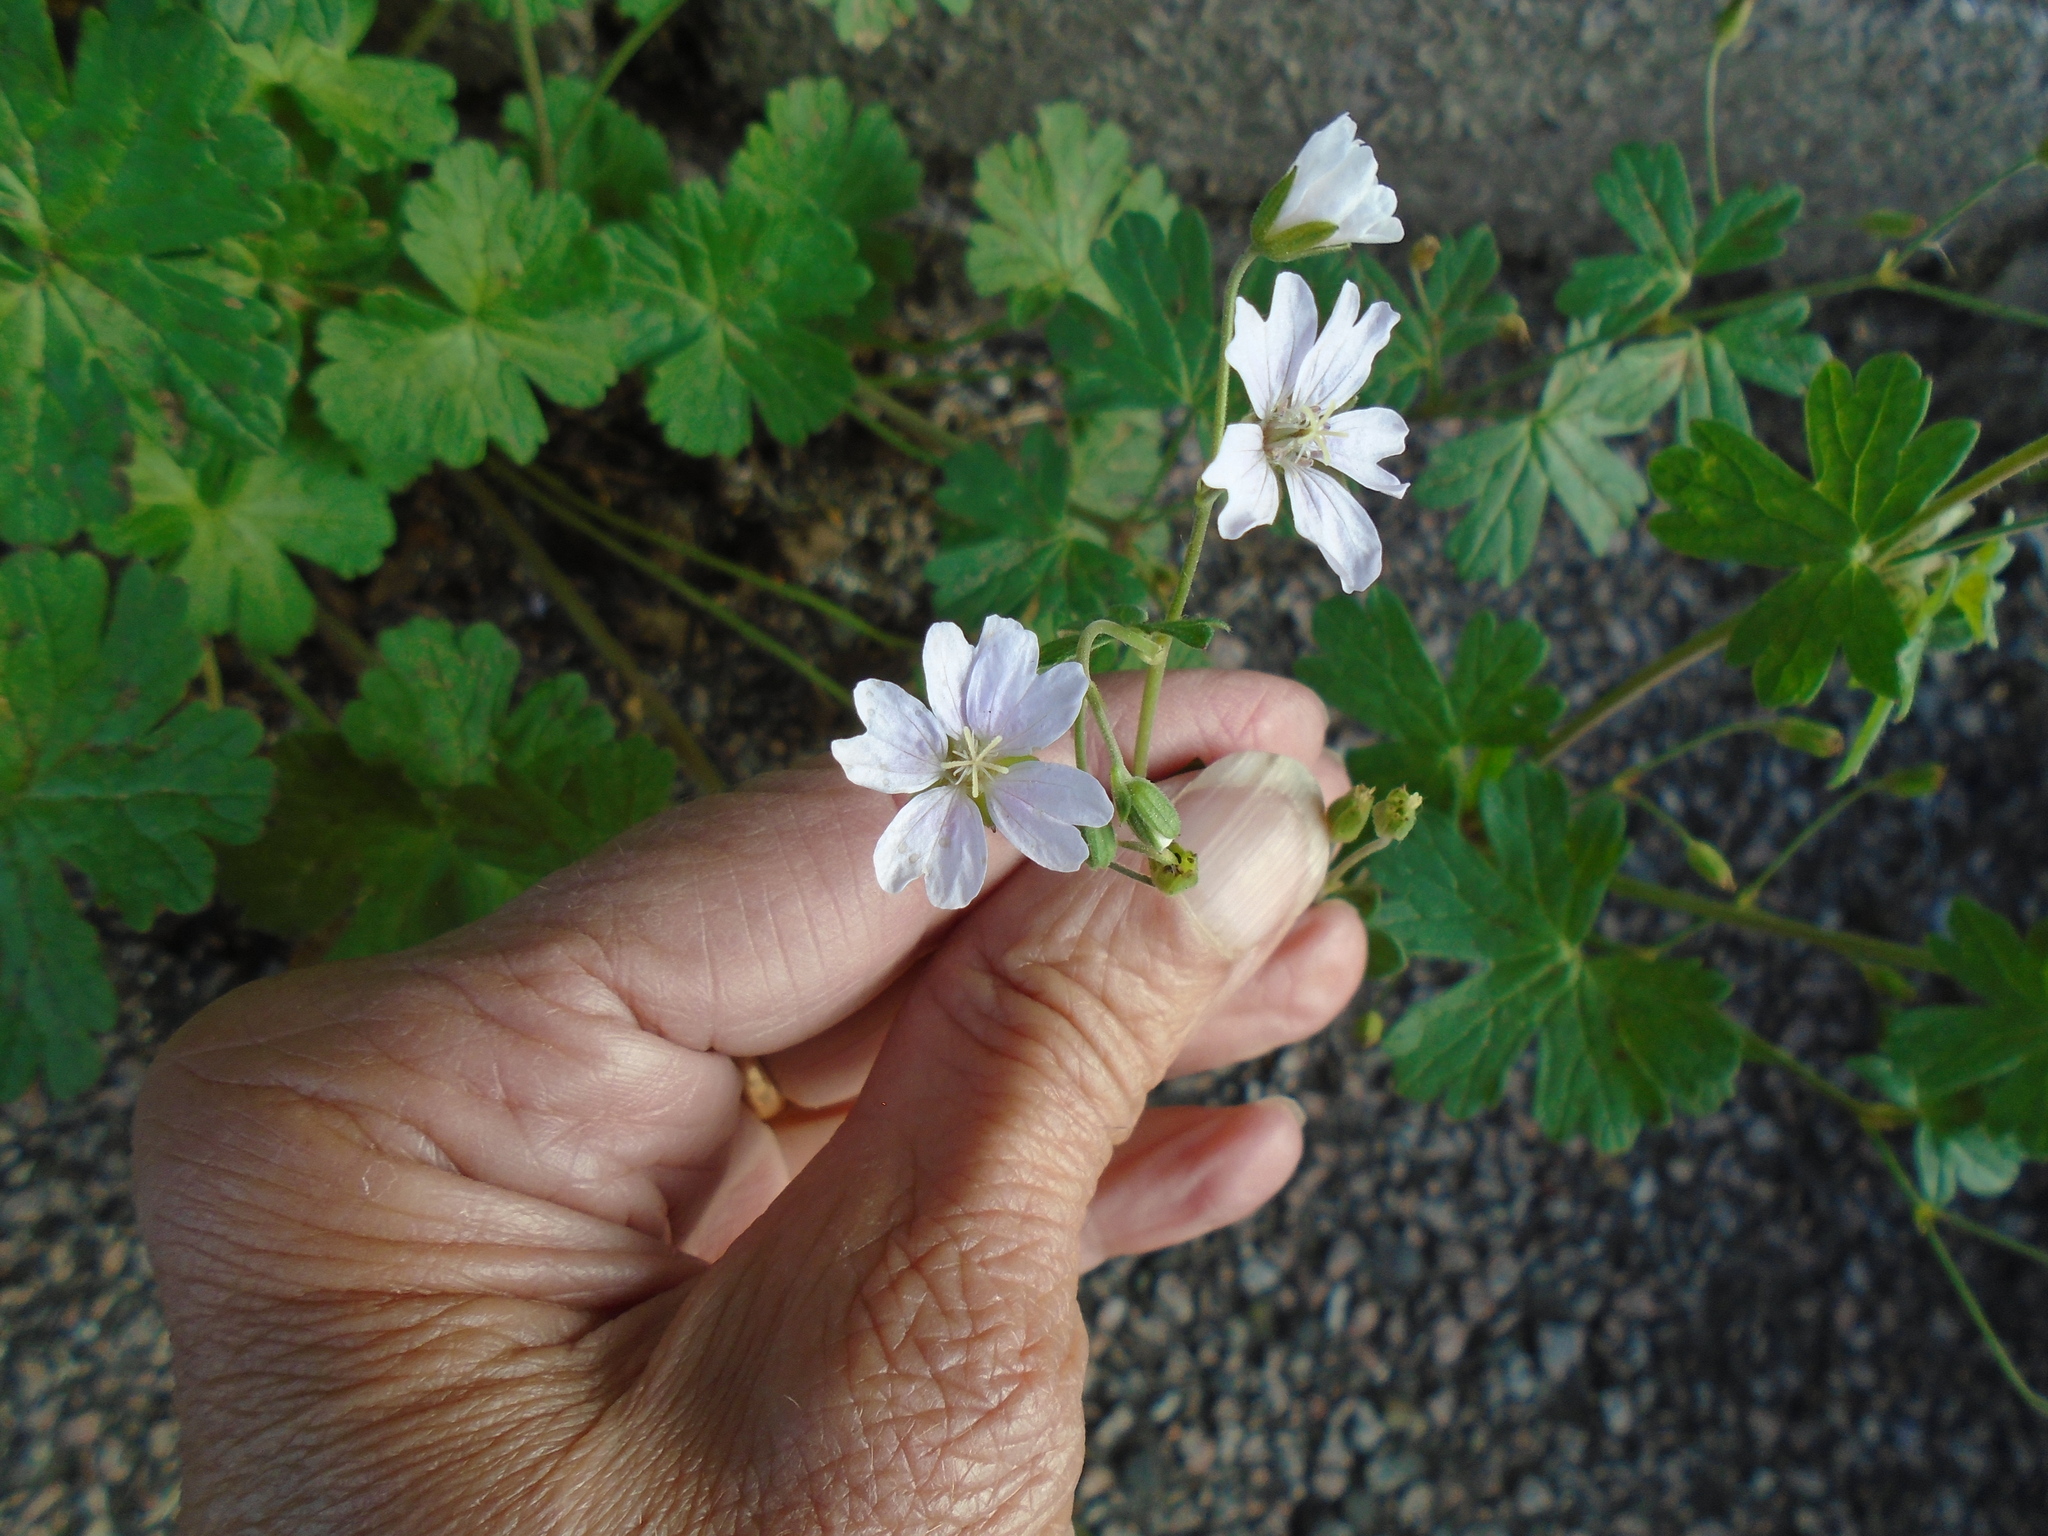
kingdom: Plantae
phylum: Tracheophyta
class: Magnoliopsida
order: Geraniales
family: Geraniaceae
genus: Geranium
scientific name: Geranium pyrenaicum
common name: Hedgerow crane's-bill
